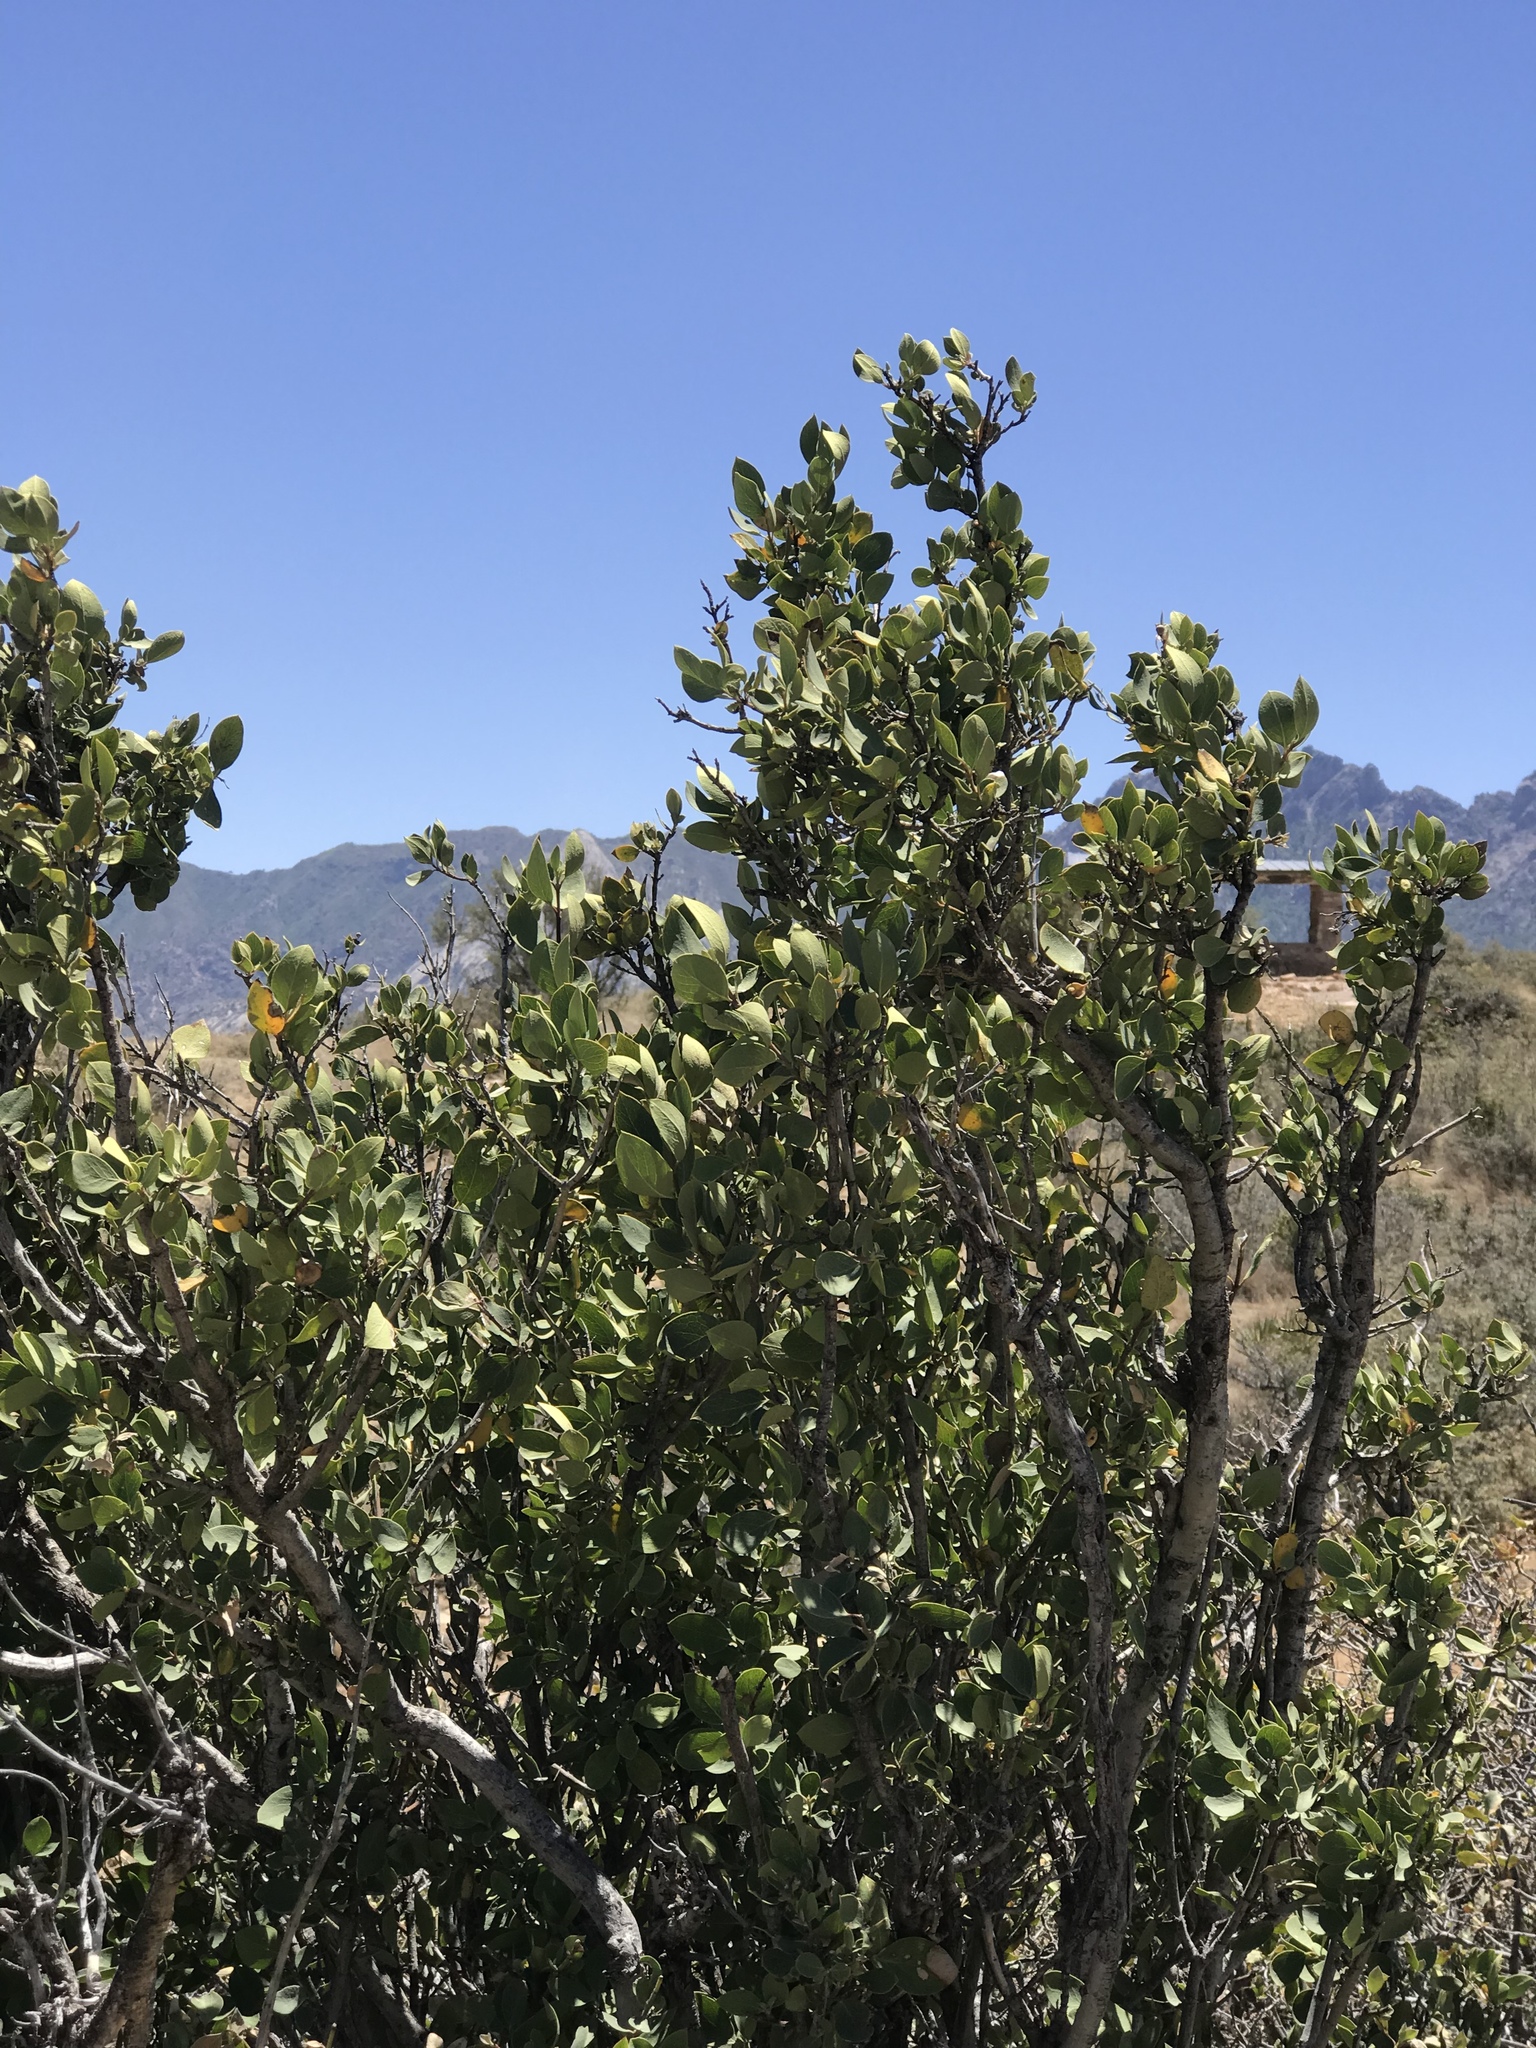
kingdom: Plantae
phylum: Tracheophyta
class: Magnoliopsida
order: Garryales
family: Garryaceae
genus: Garrya
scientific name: Garrya wrightii
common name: Wright's silktassel
